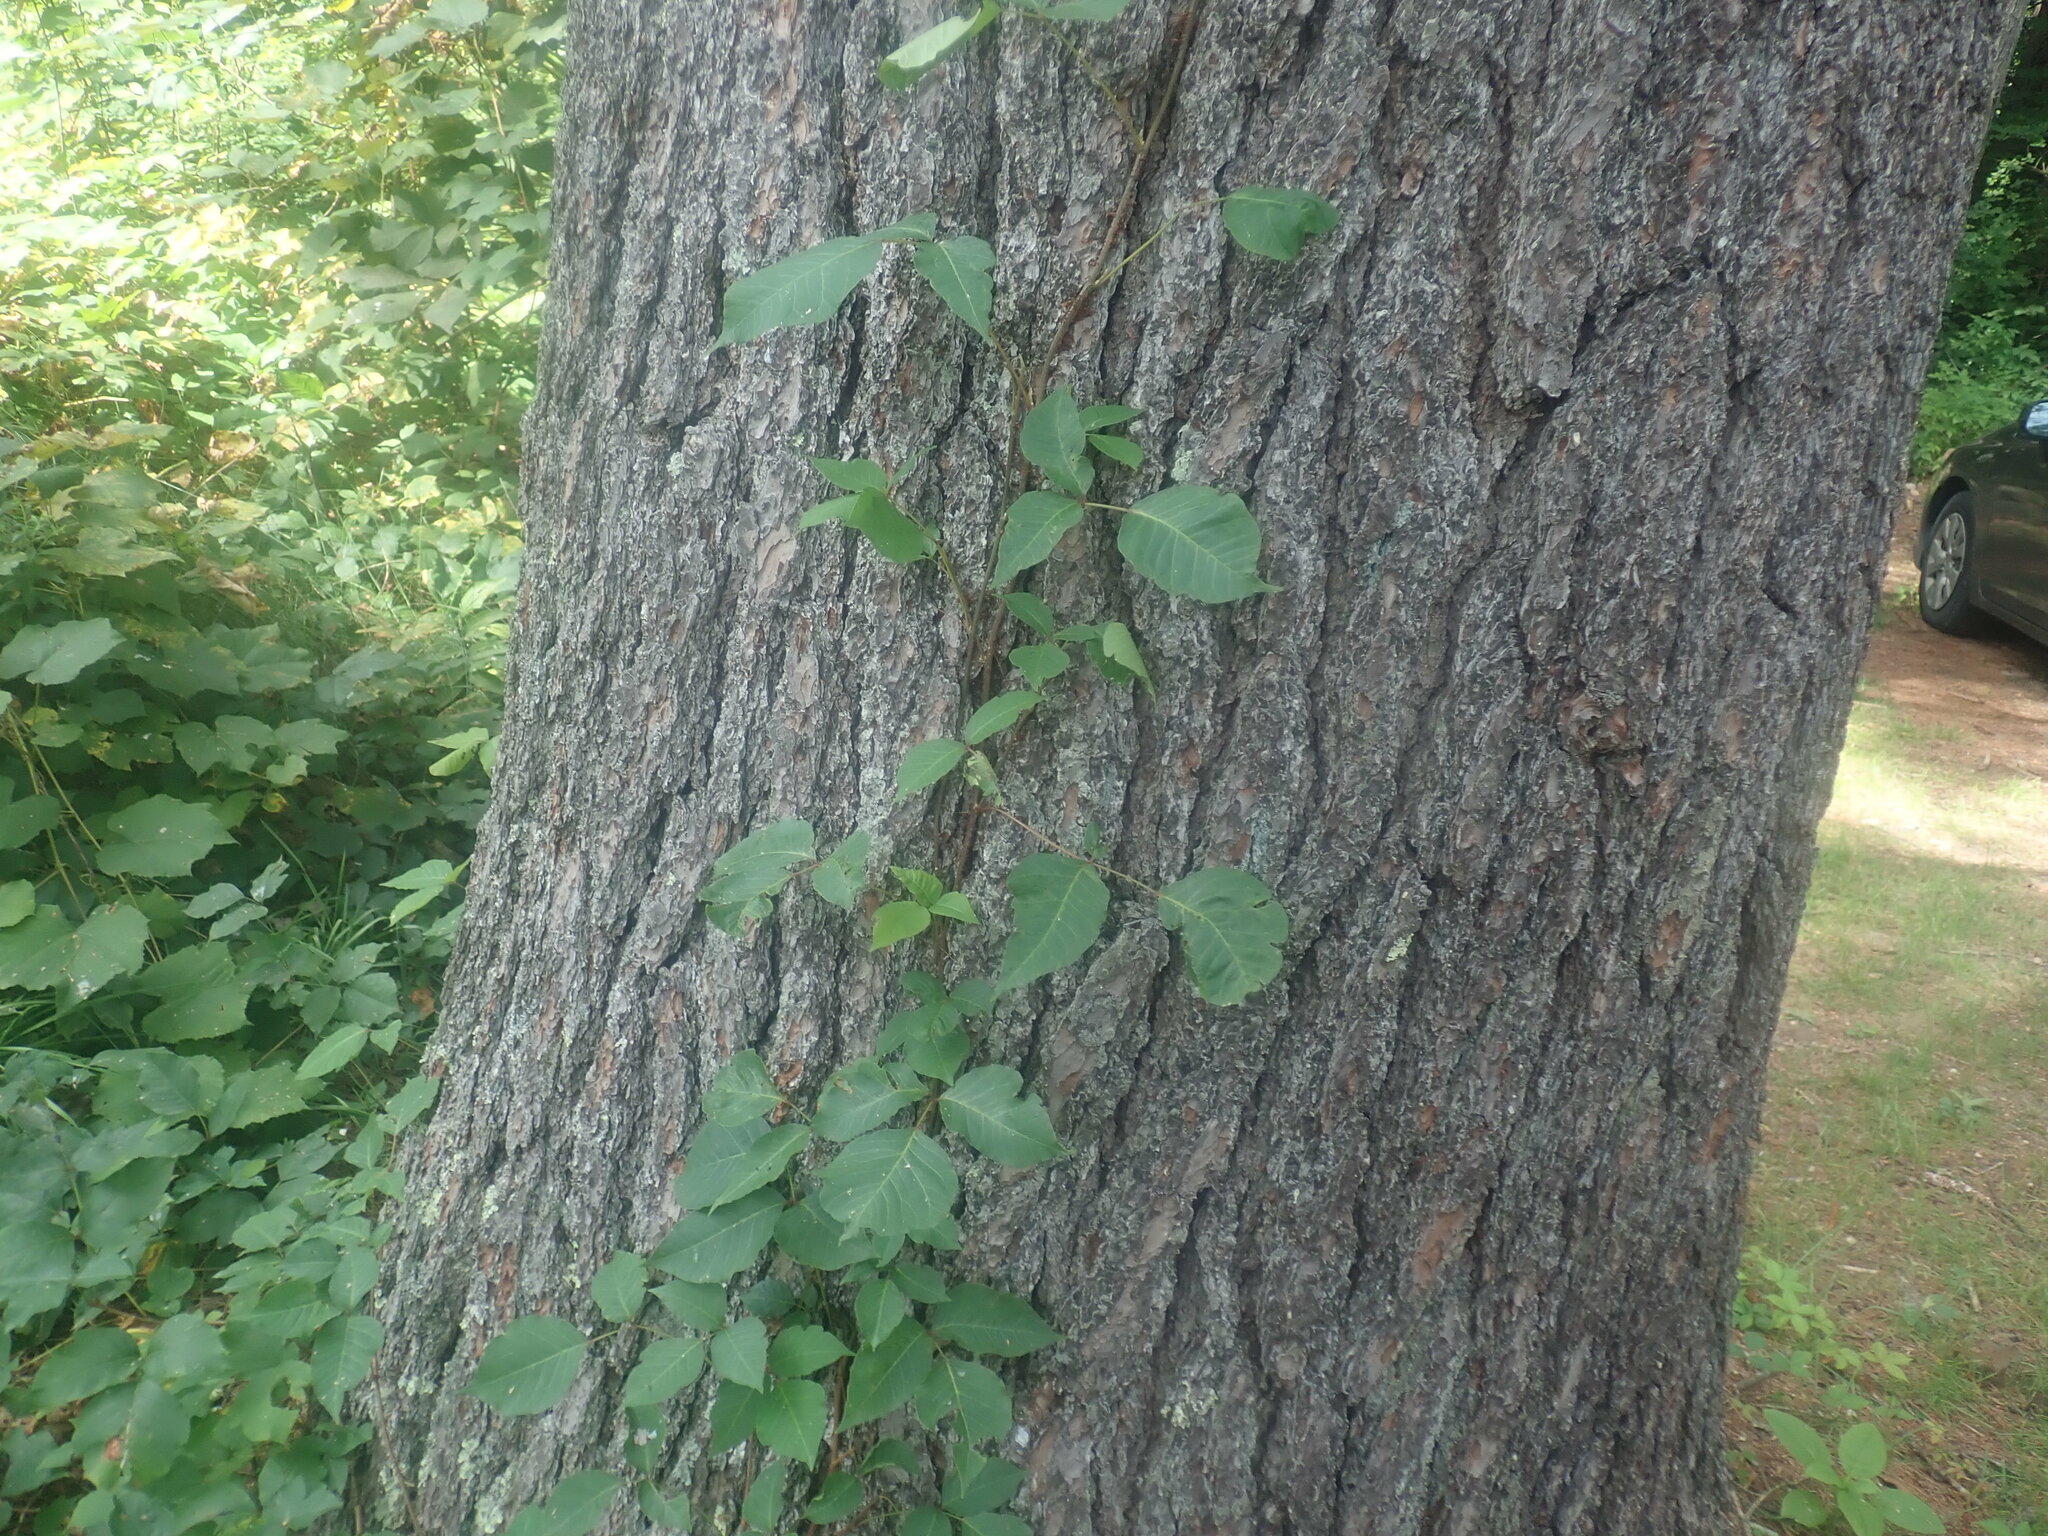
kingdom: Plantae
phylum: Tracheophyta
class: Magnoliopsida
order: Sapindales
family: Anacardiaceae
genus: Toxicodendron
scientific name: Toxicodendron radicans
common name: Poison ivy
